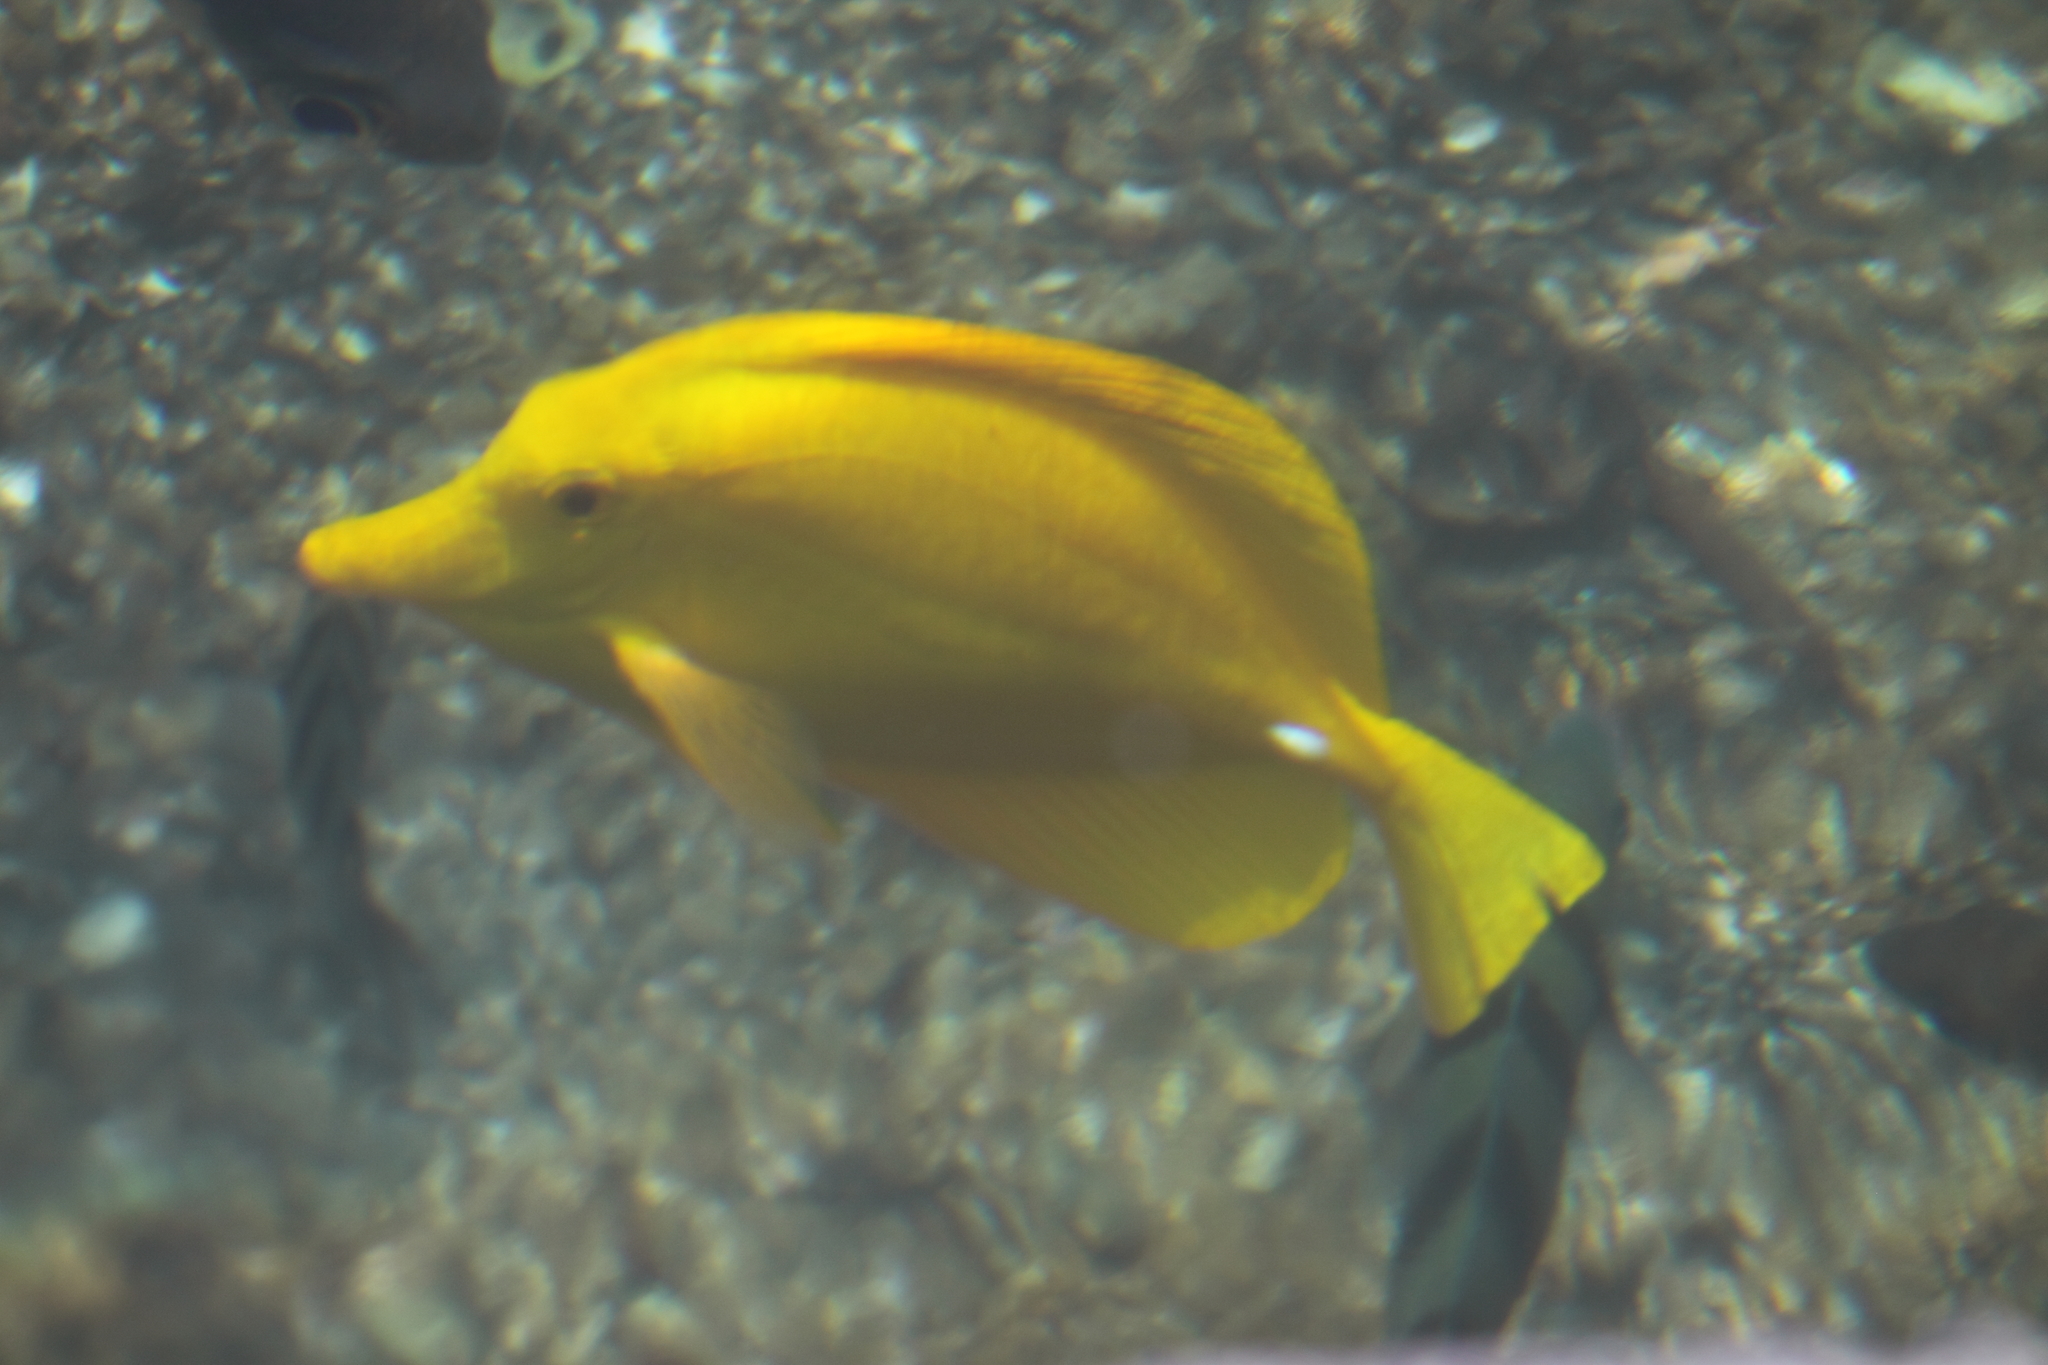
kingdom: Animalia
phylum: Chordata
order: Perciformes
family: Acanthuridae
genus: Zebrasoma
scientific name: Zebrasoma flavescens
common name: Yellow tang
